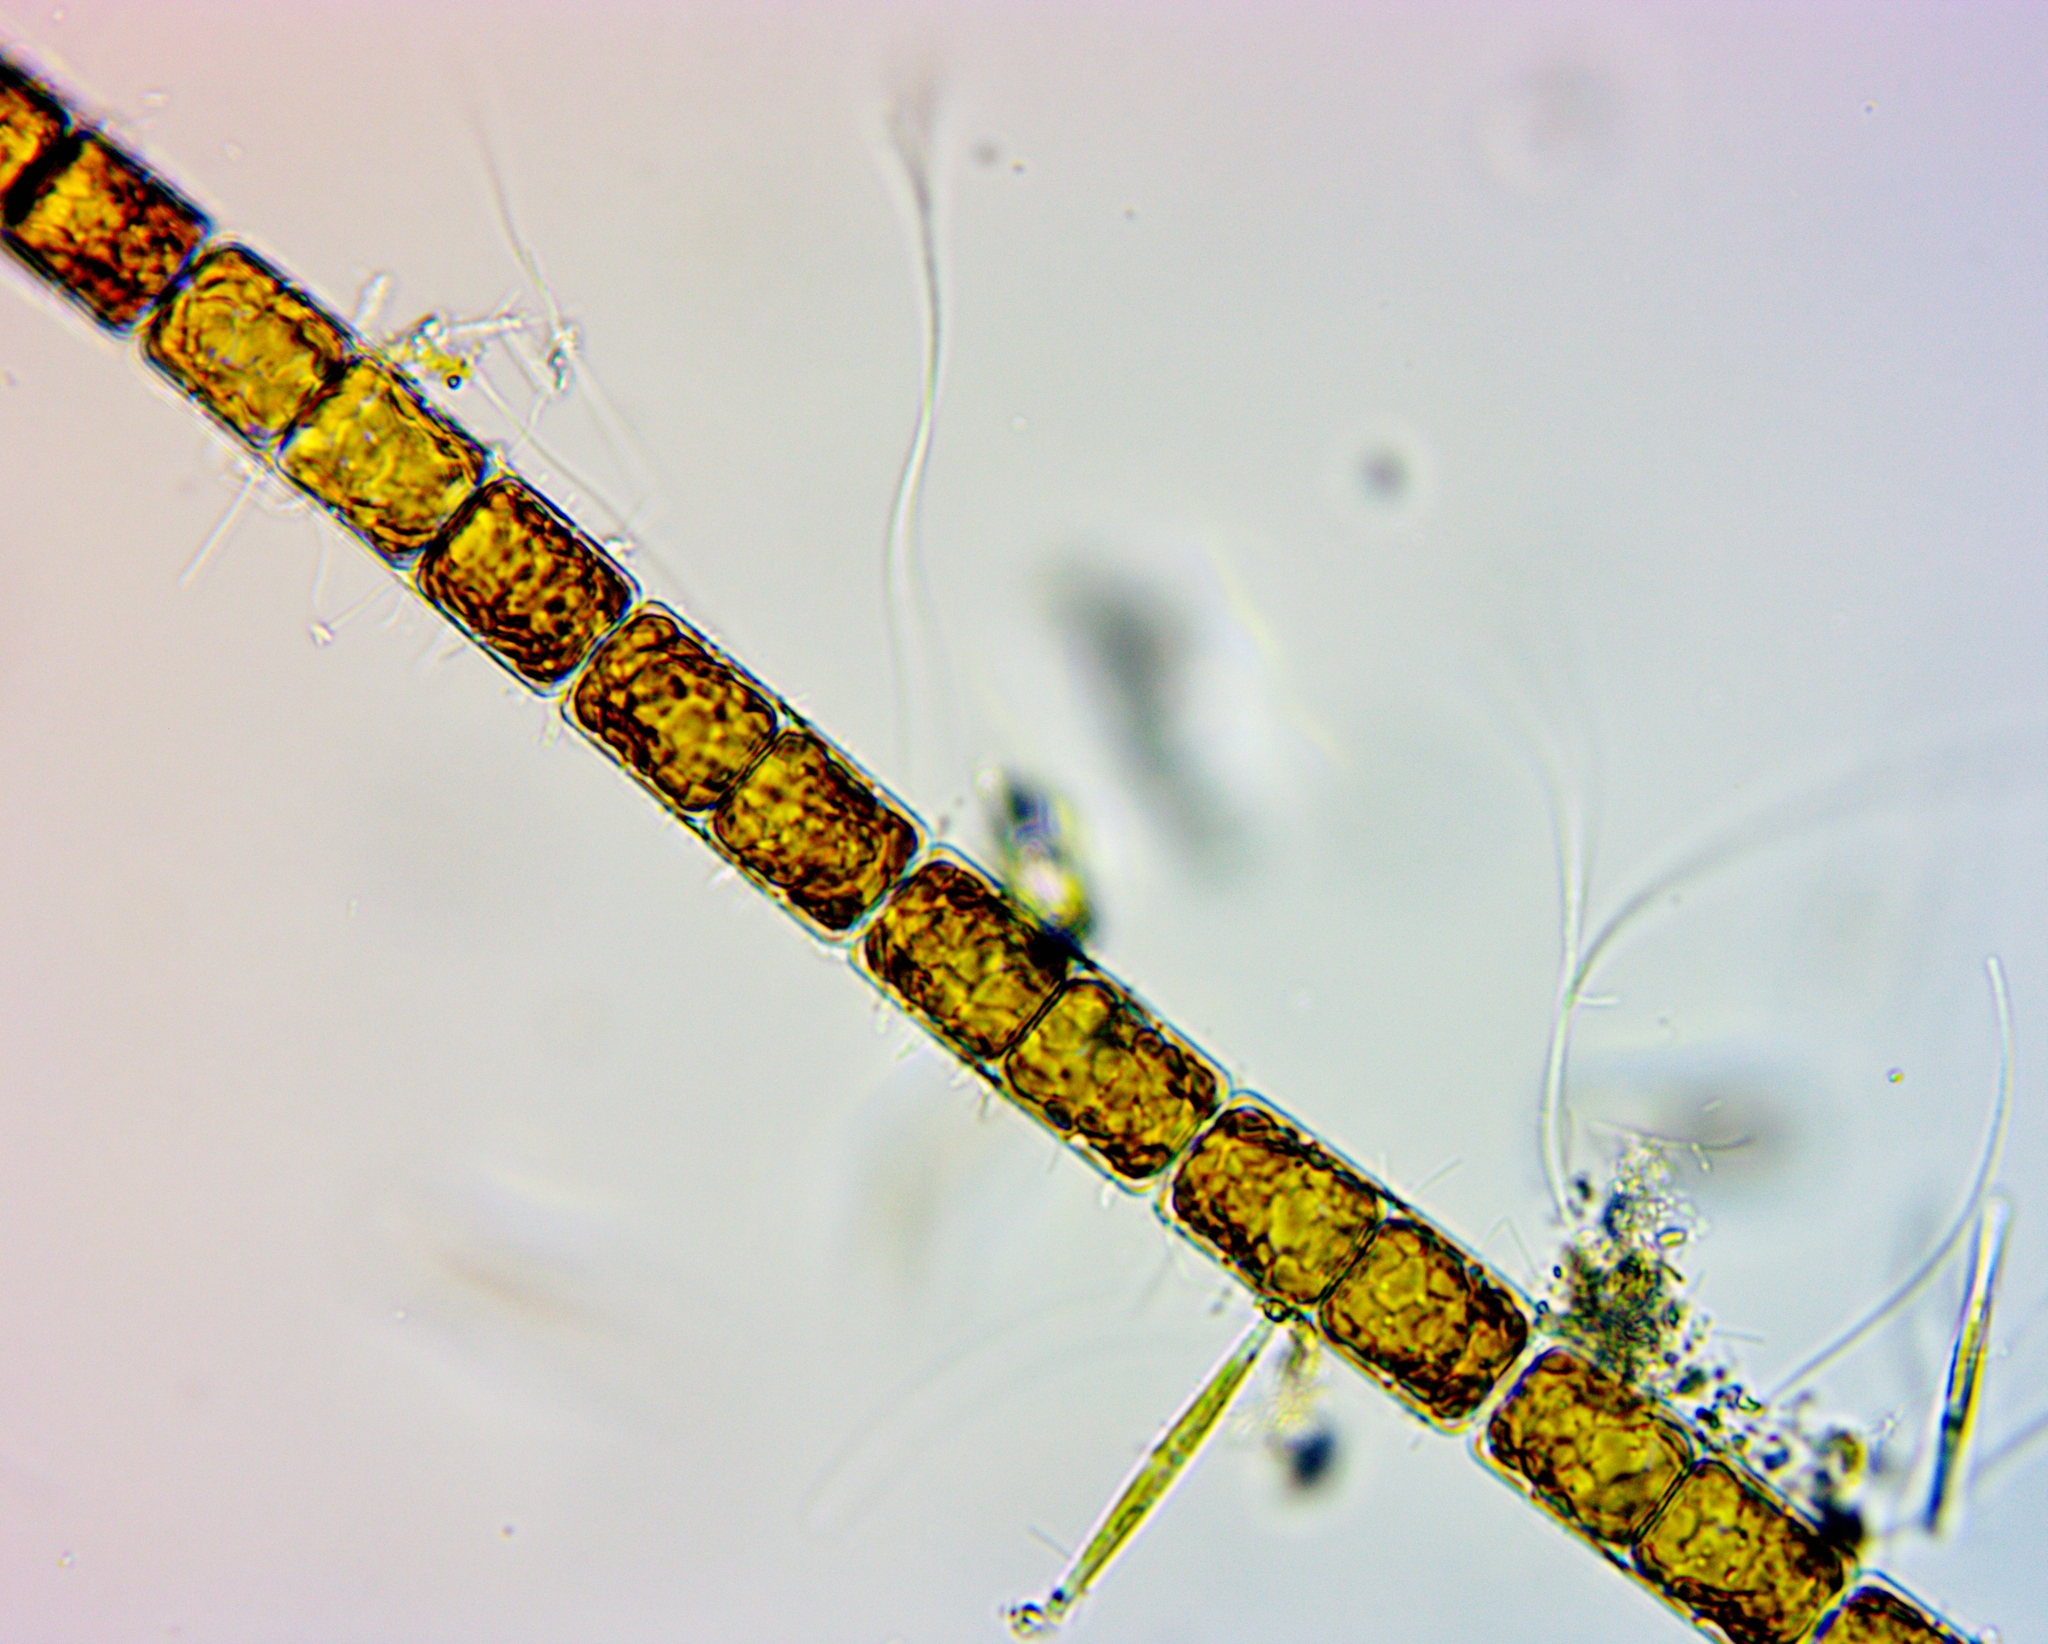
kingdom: Chromista
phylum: Ochrophyta
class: Bacillariophyceae
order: Melosirales
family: Melosiraceae
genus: Melosira
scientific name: Melosira varians
